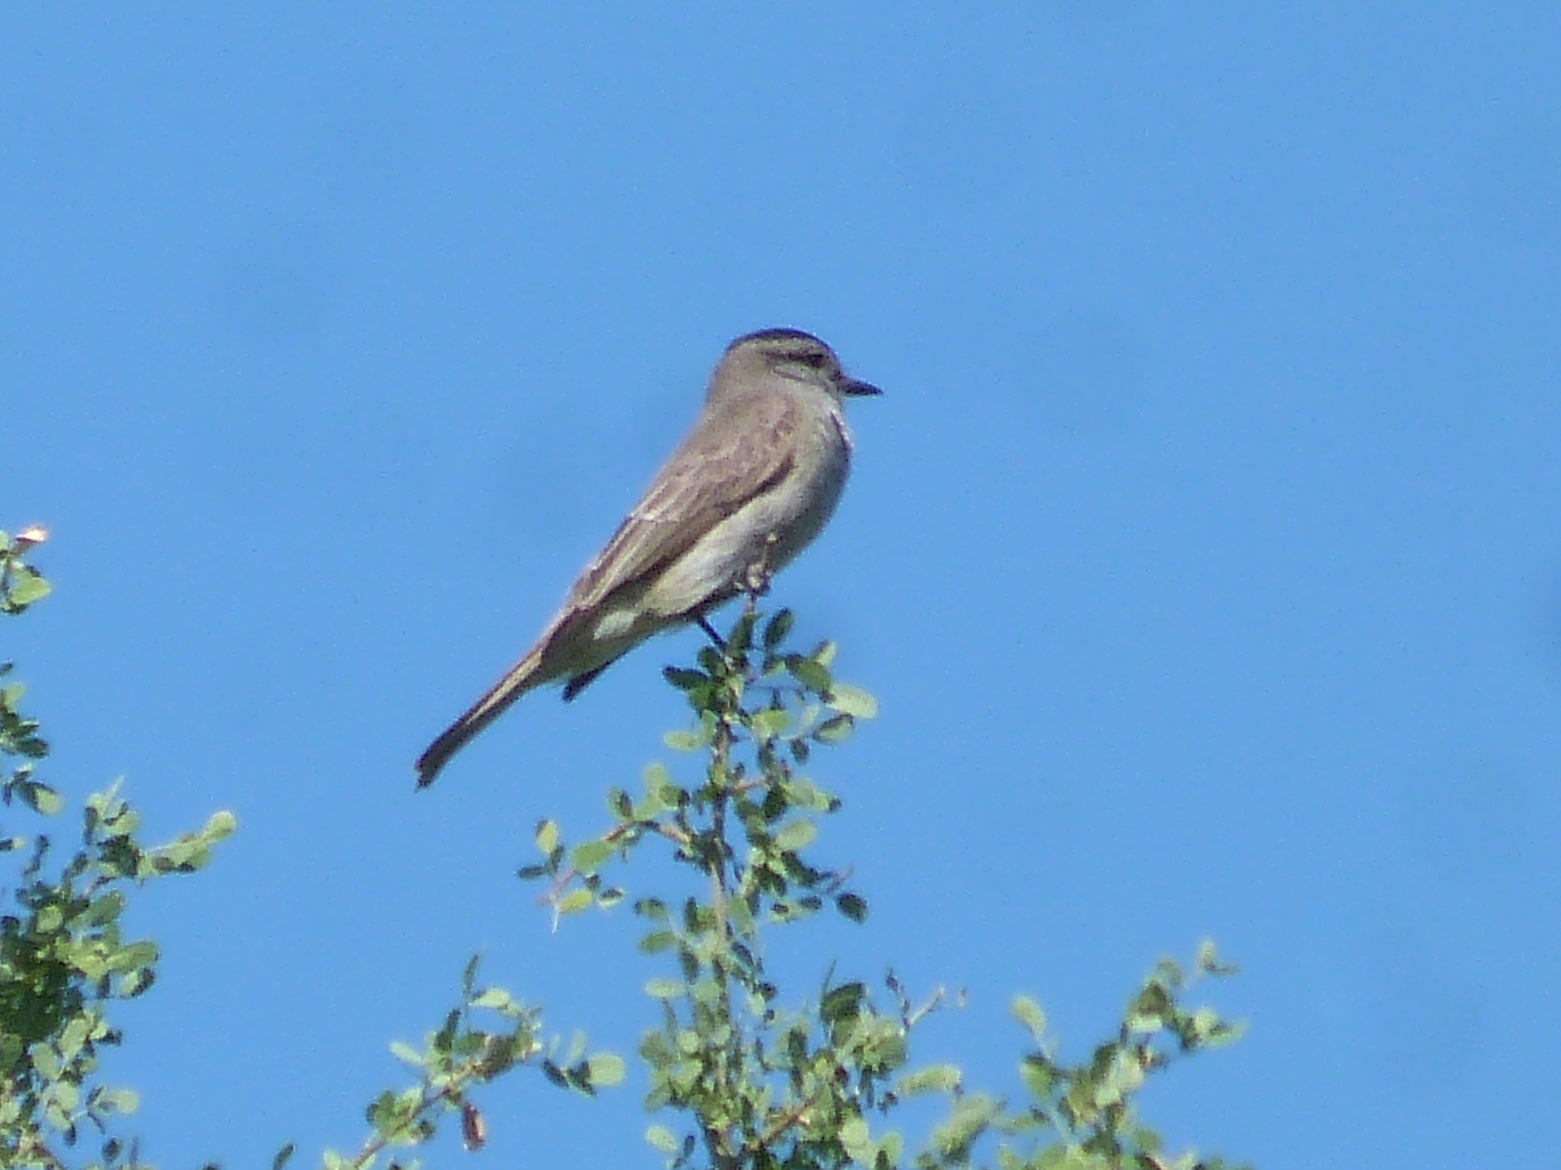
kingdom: Animalia
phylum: Chordata
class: Aves
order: Passeriformes
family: Tyrannidae
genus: Empidonomus
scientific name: Empidonomus aurantioatrocristatus
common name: Crowned slaty flycatcher
